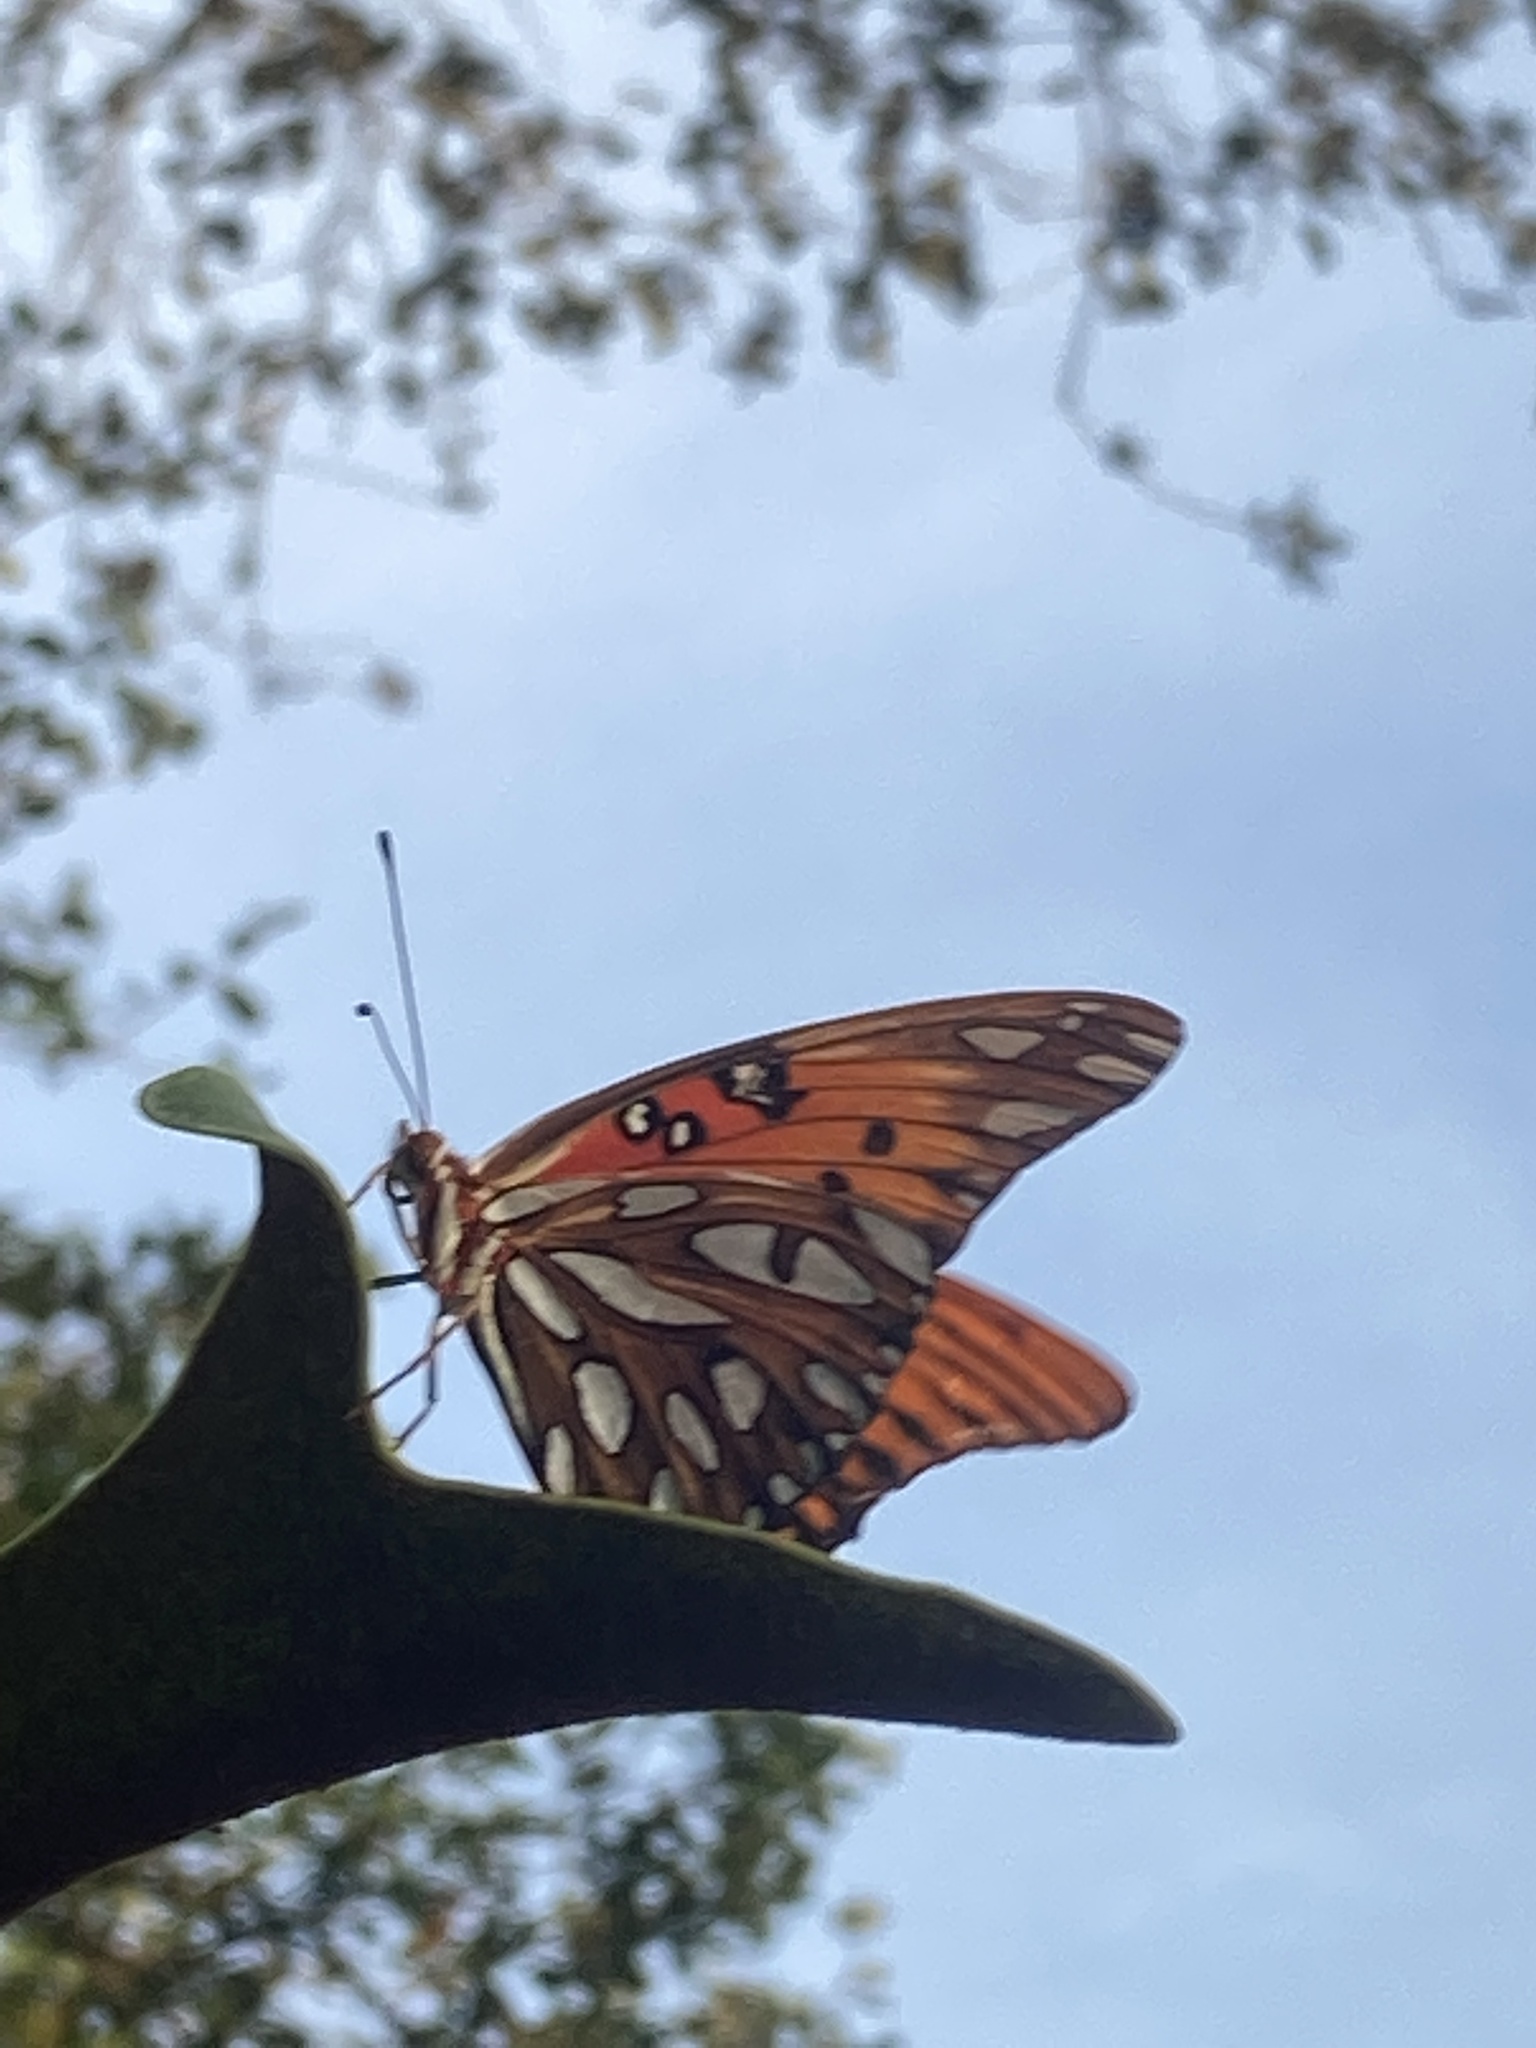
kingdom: Animalia
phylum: Arthropoda
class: Insecta
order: Lepidoptera
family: Nymphalidae
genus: Dione
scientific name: Dione vanillae
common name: Gulf fritillary
